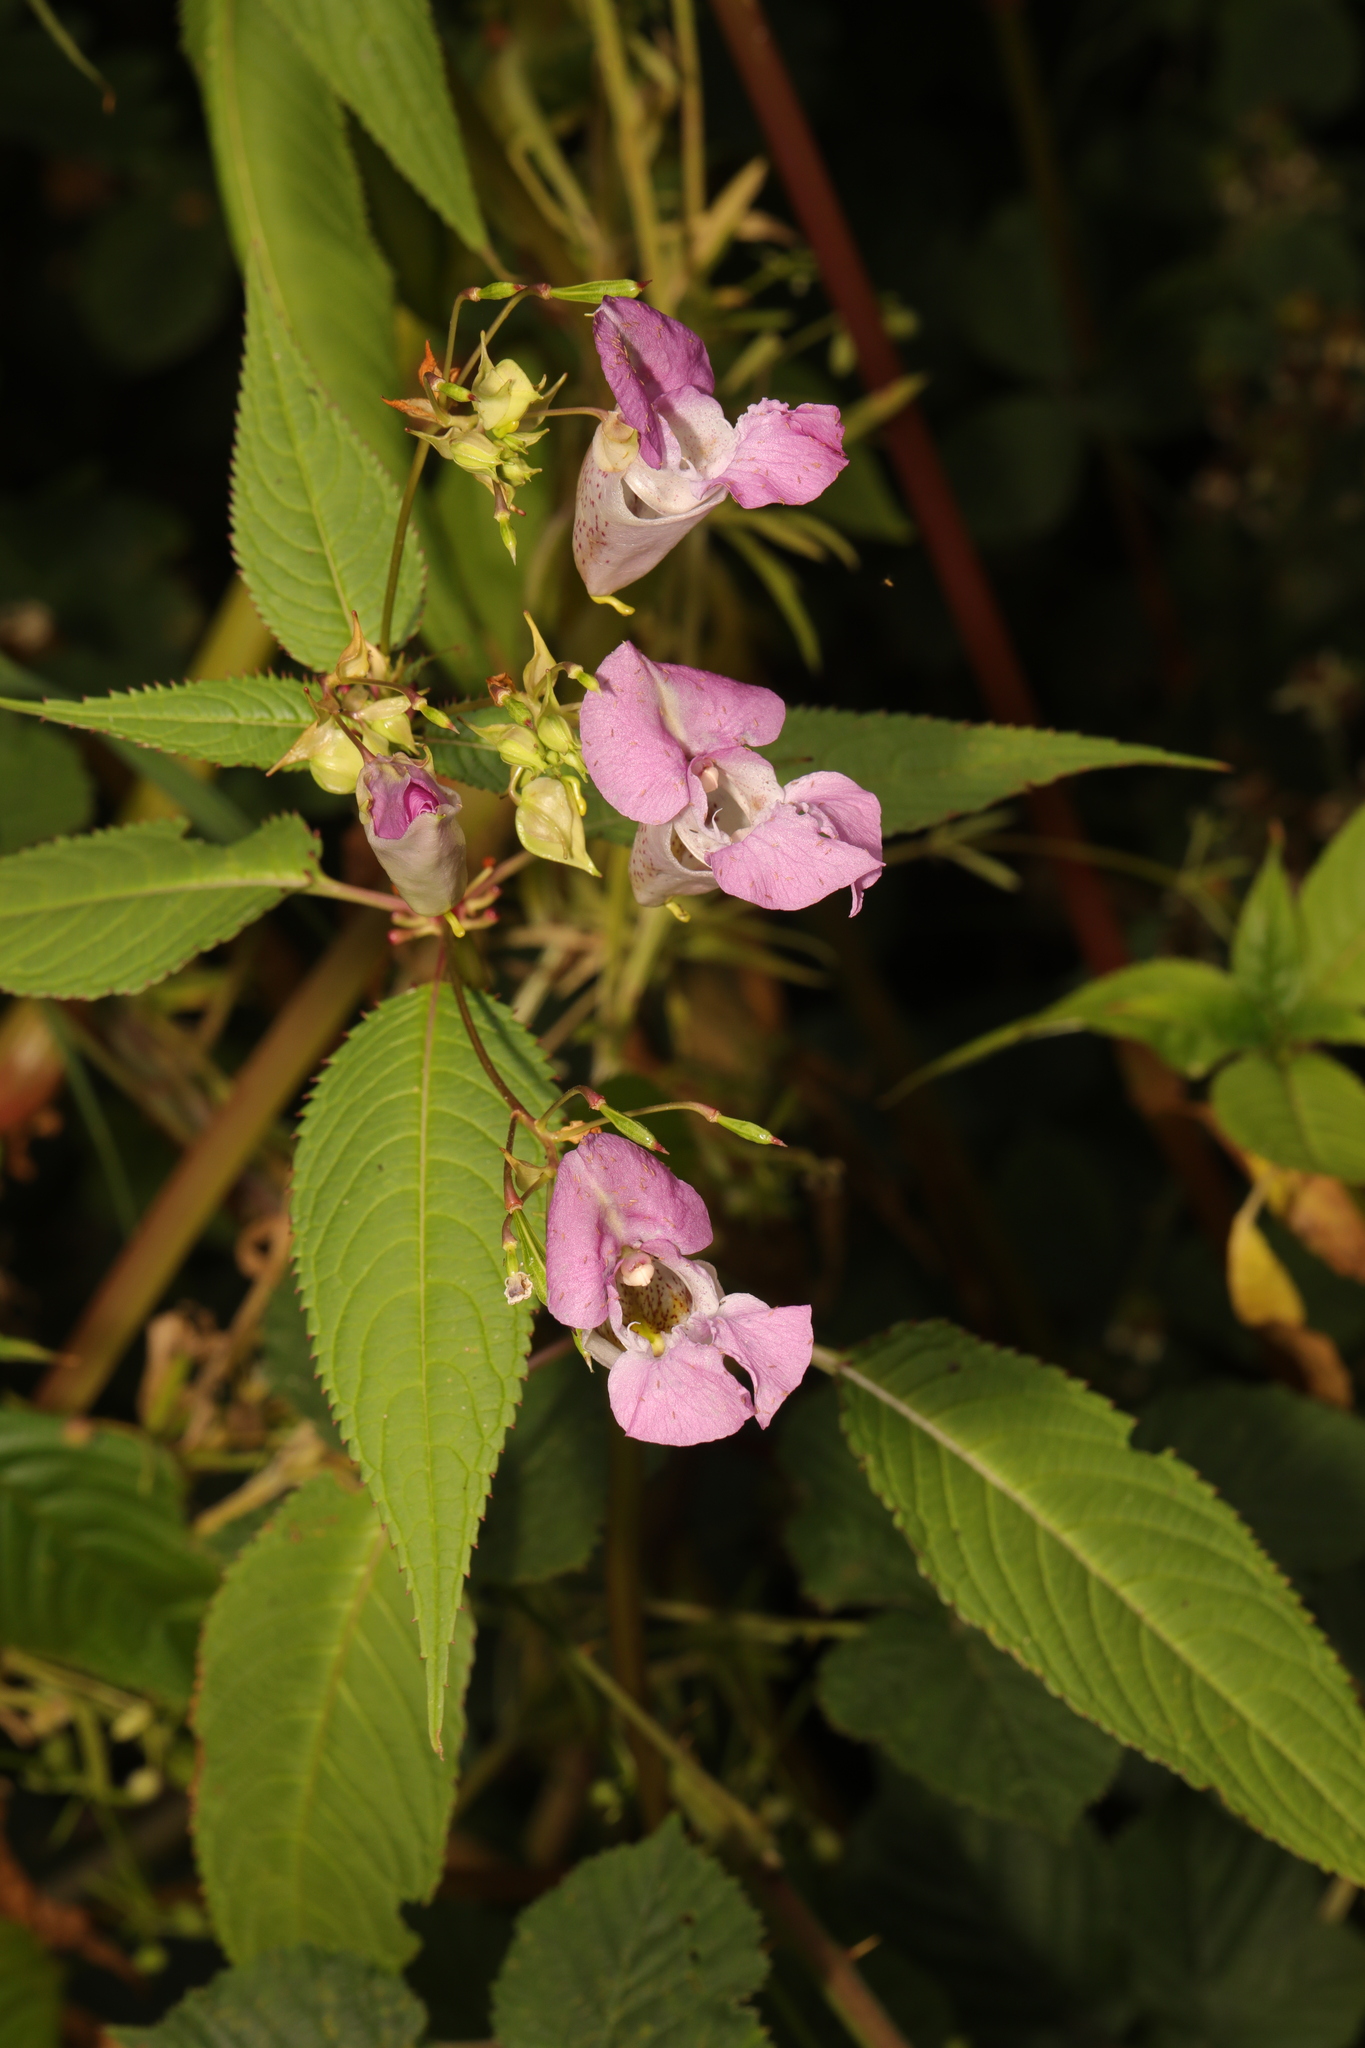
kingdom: Plantae
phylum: Tracheophyta
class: Magnoliopsida
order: Ericales
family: Balsaminaceae
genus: Impatiens
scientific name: Impatiens glandulifera
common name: Himalayan balsam
